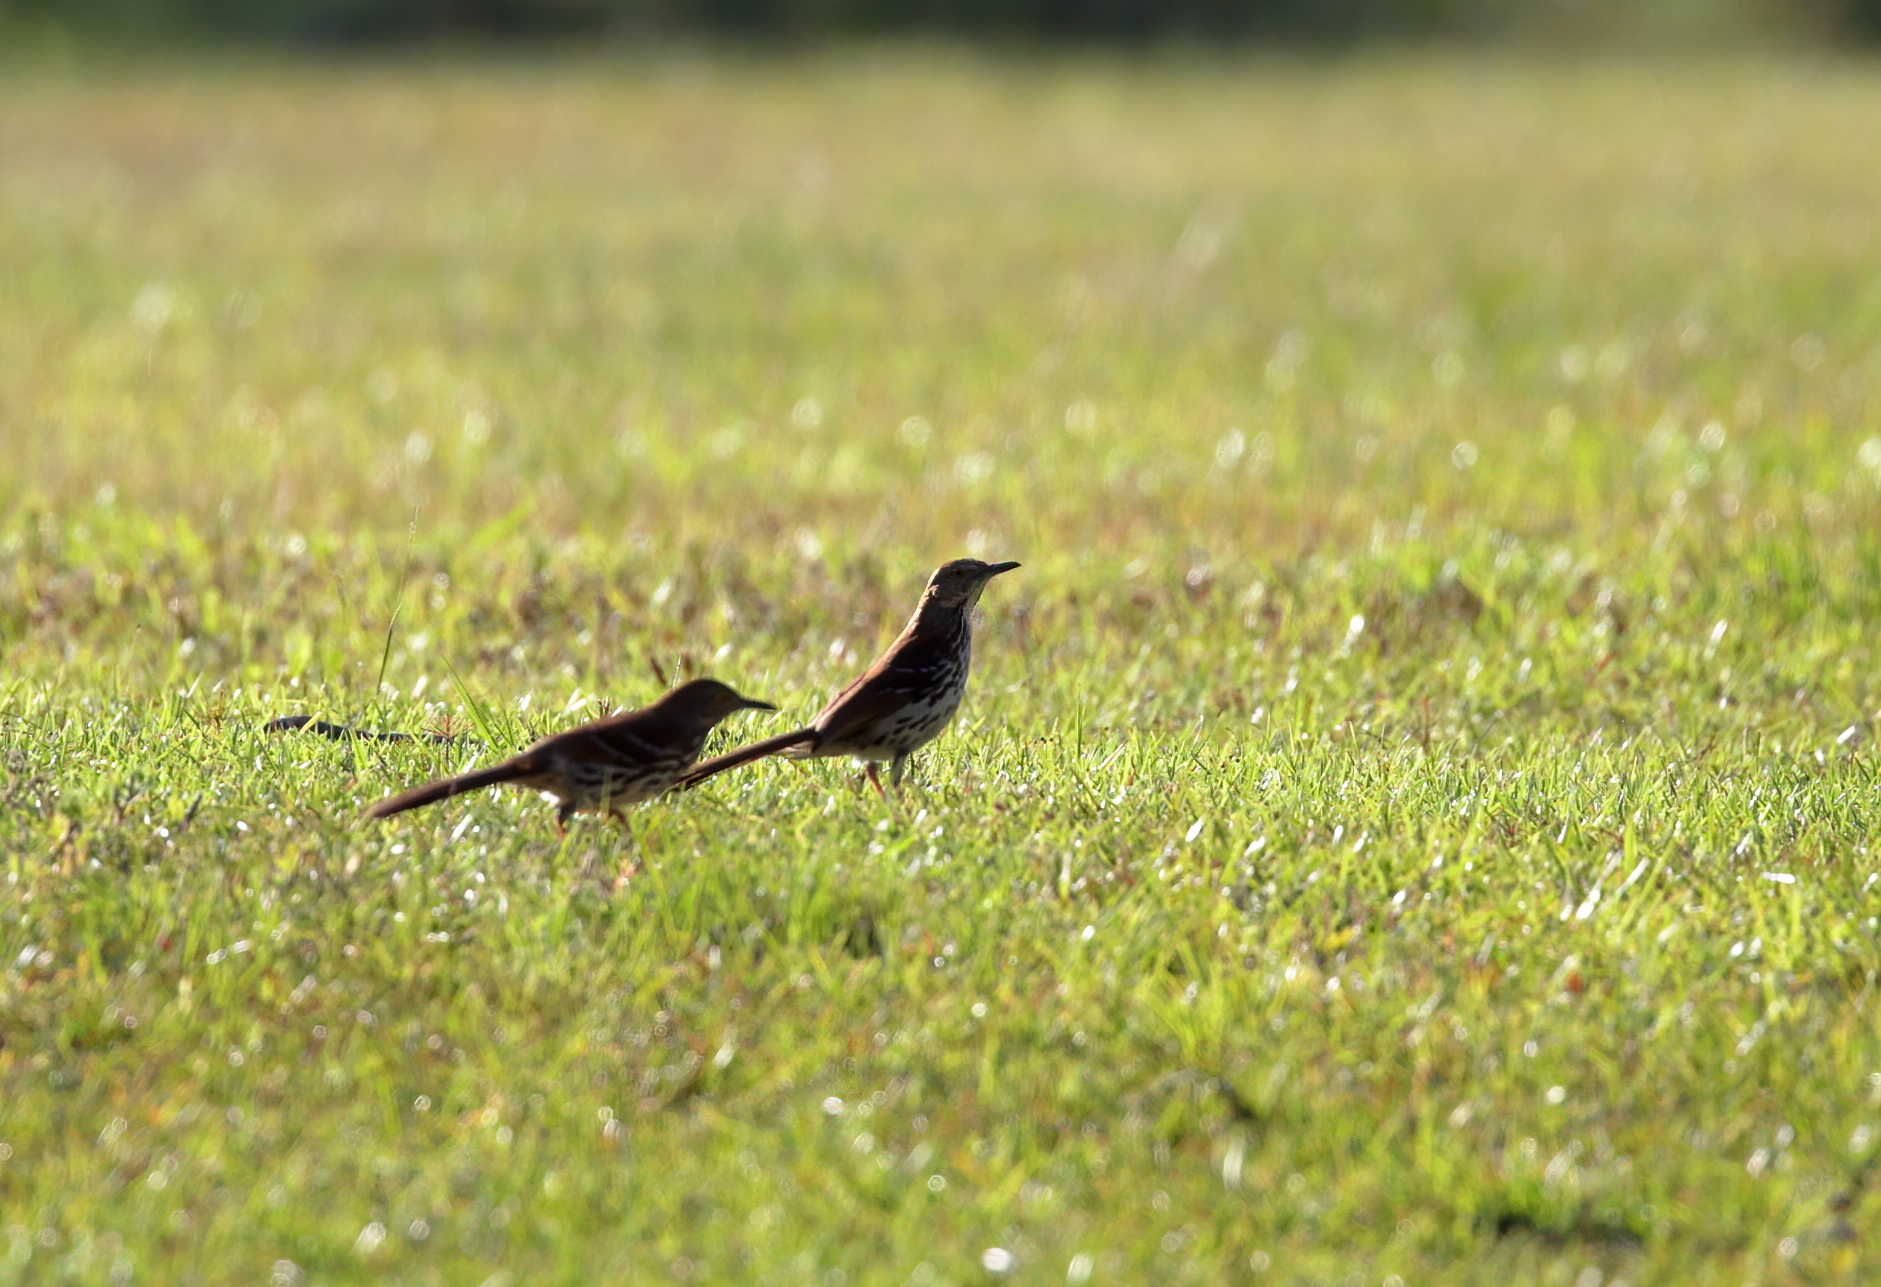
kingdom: Animalia
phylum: Chordata
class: Aves
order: Passeriformes
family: Mimidae
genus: Toxostoma
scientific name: Toxostoma rufum
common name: Brown thrasher
